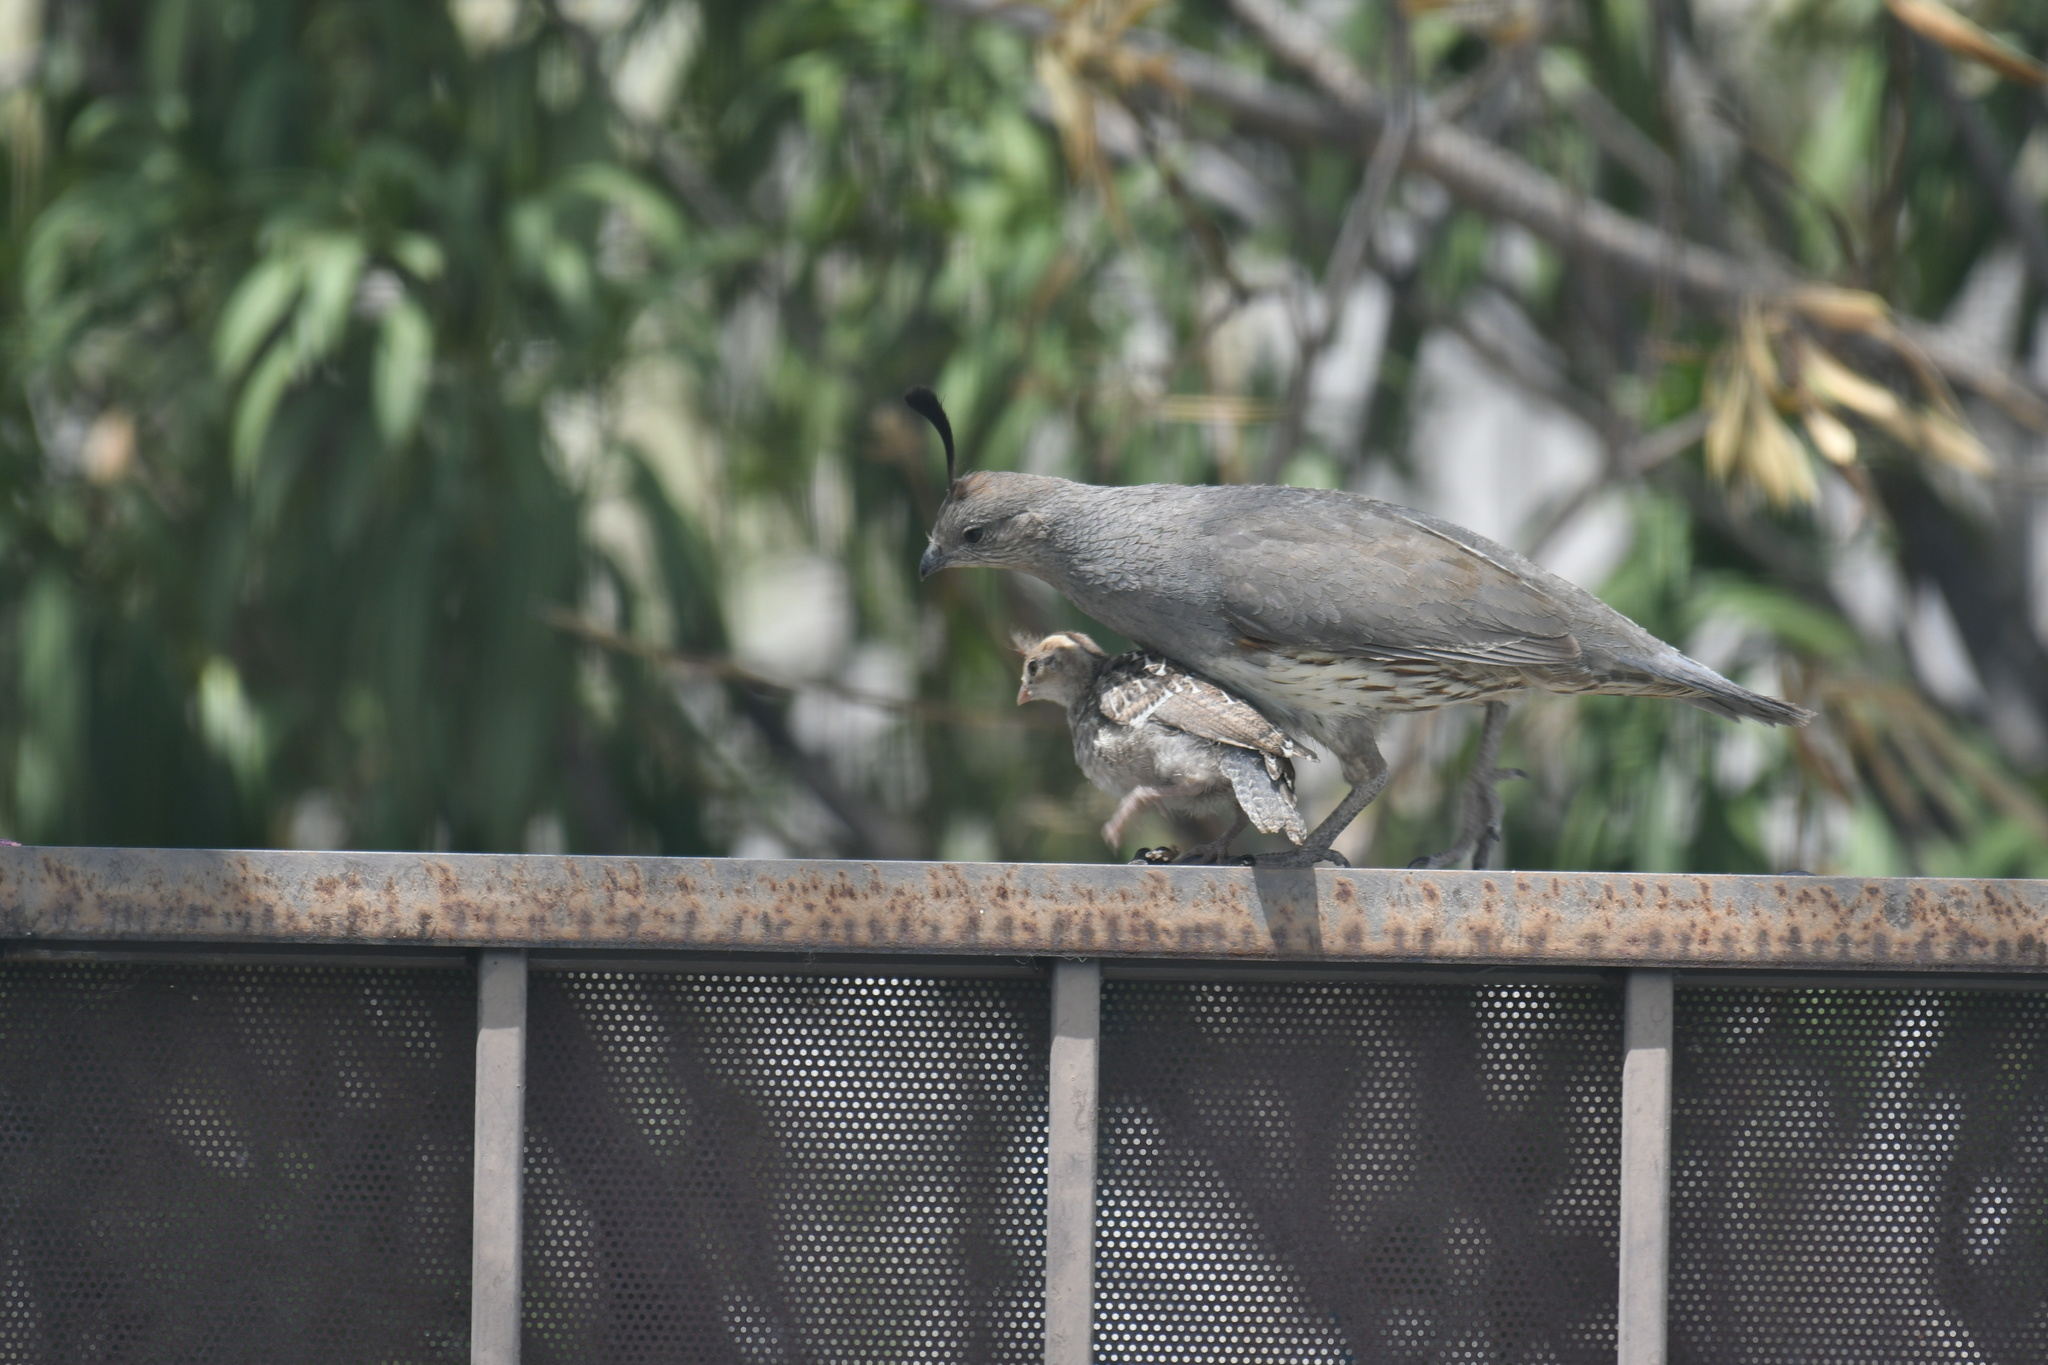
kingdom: Animalia
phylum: Chordata
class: Aves
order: Galliformes
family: Odontophoridae
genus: Callipepla
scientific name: Callipepla gambelii
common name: Gambel's quail
